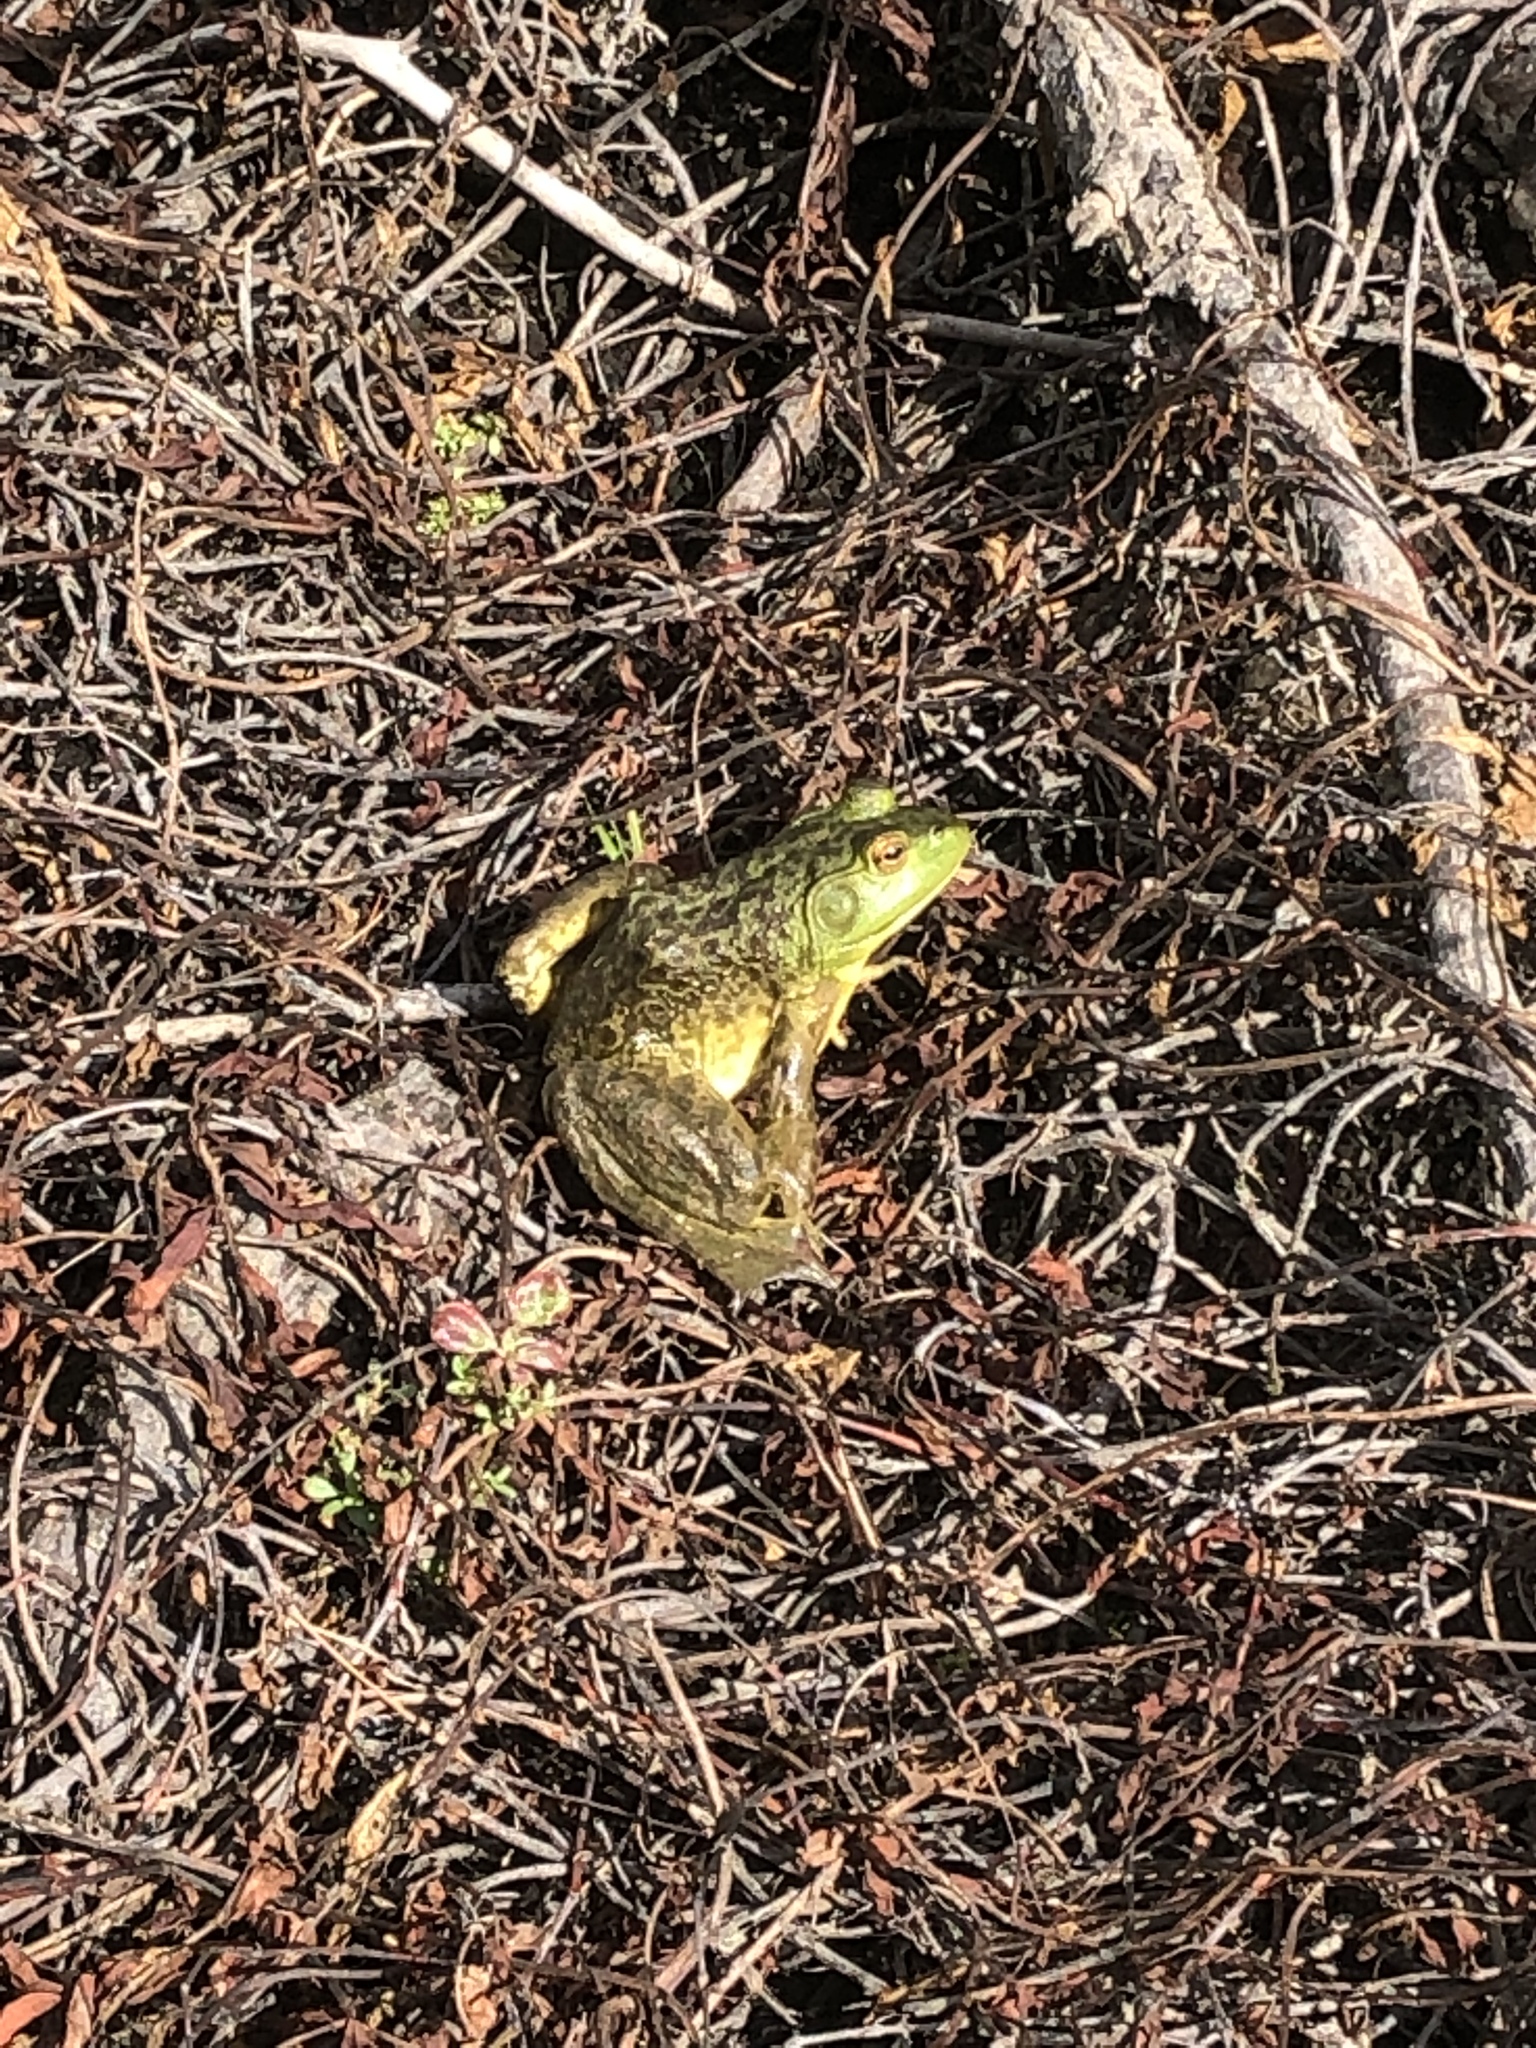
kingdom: Animalia
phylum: Chordata
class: Amphibia
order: Anura
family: Ranidae
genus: Lithobates
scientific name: Lithobates catesbeianus
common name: American bullfrog
